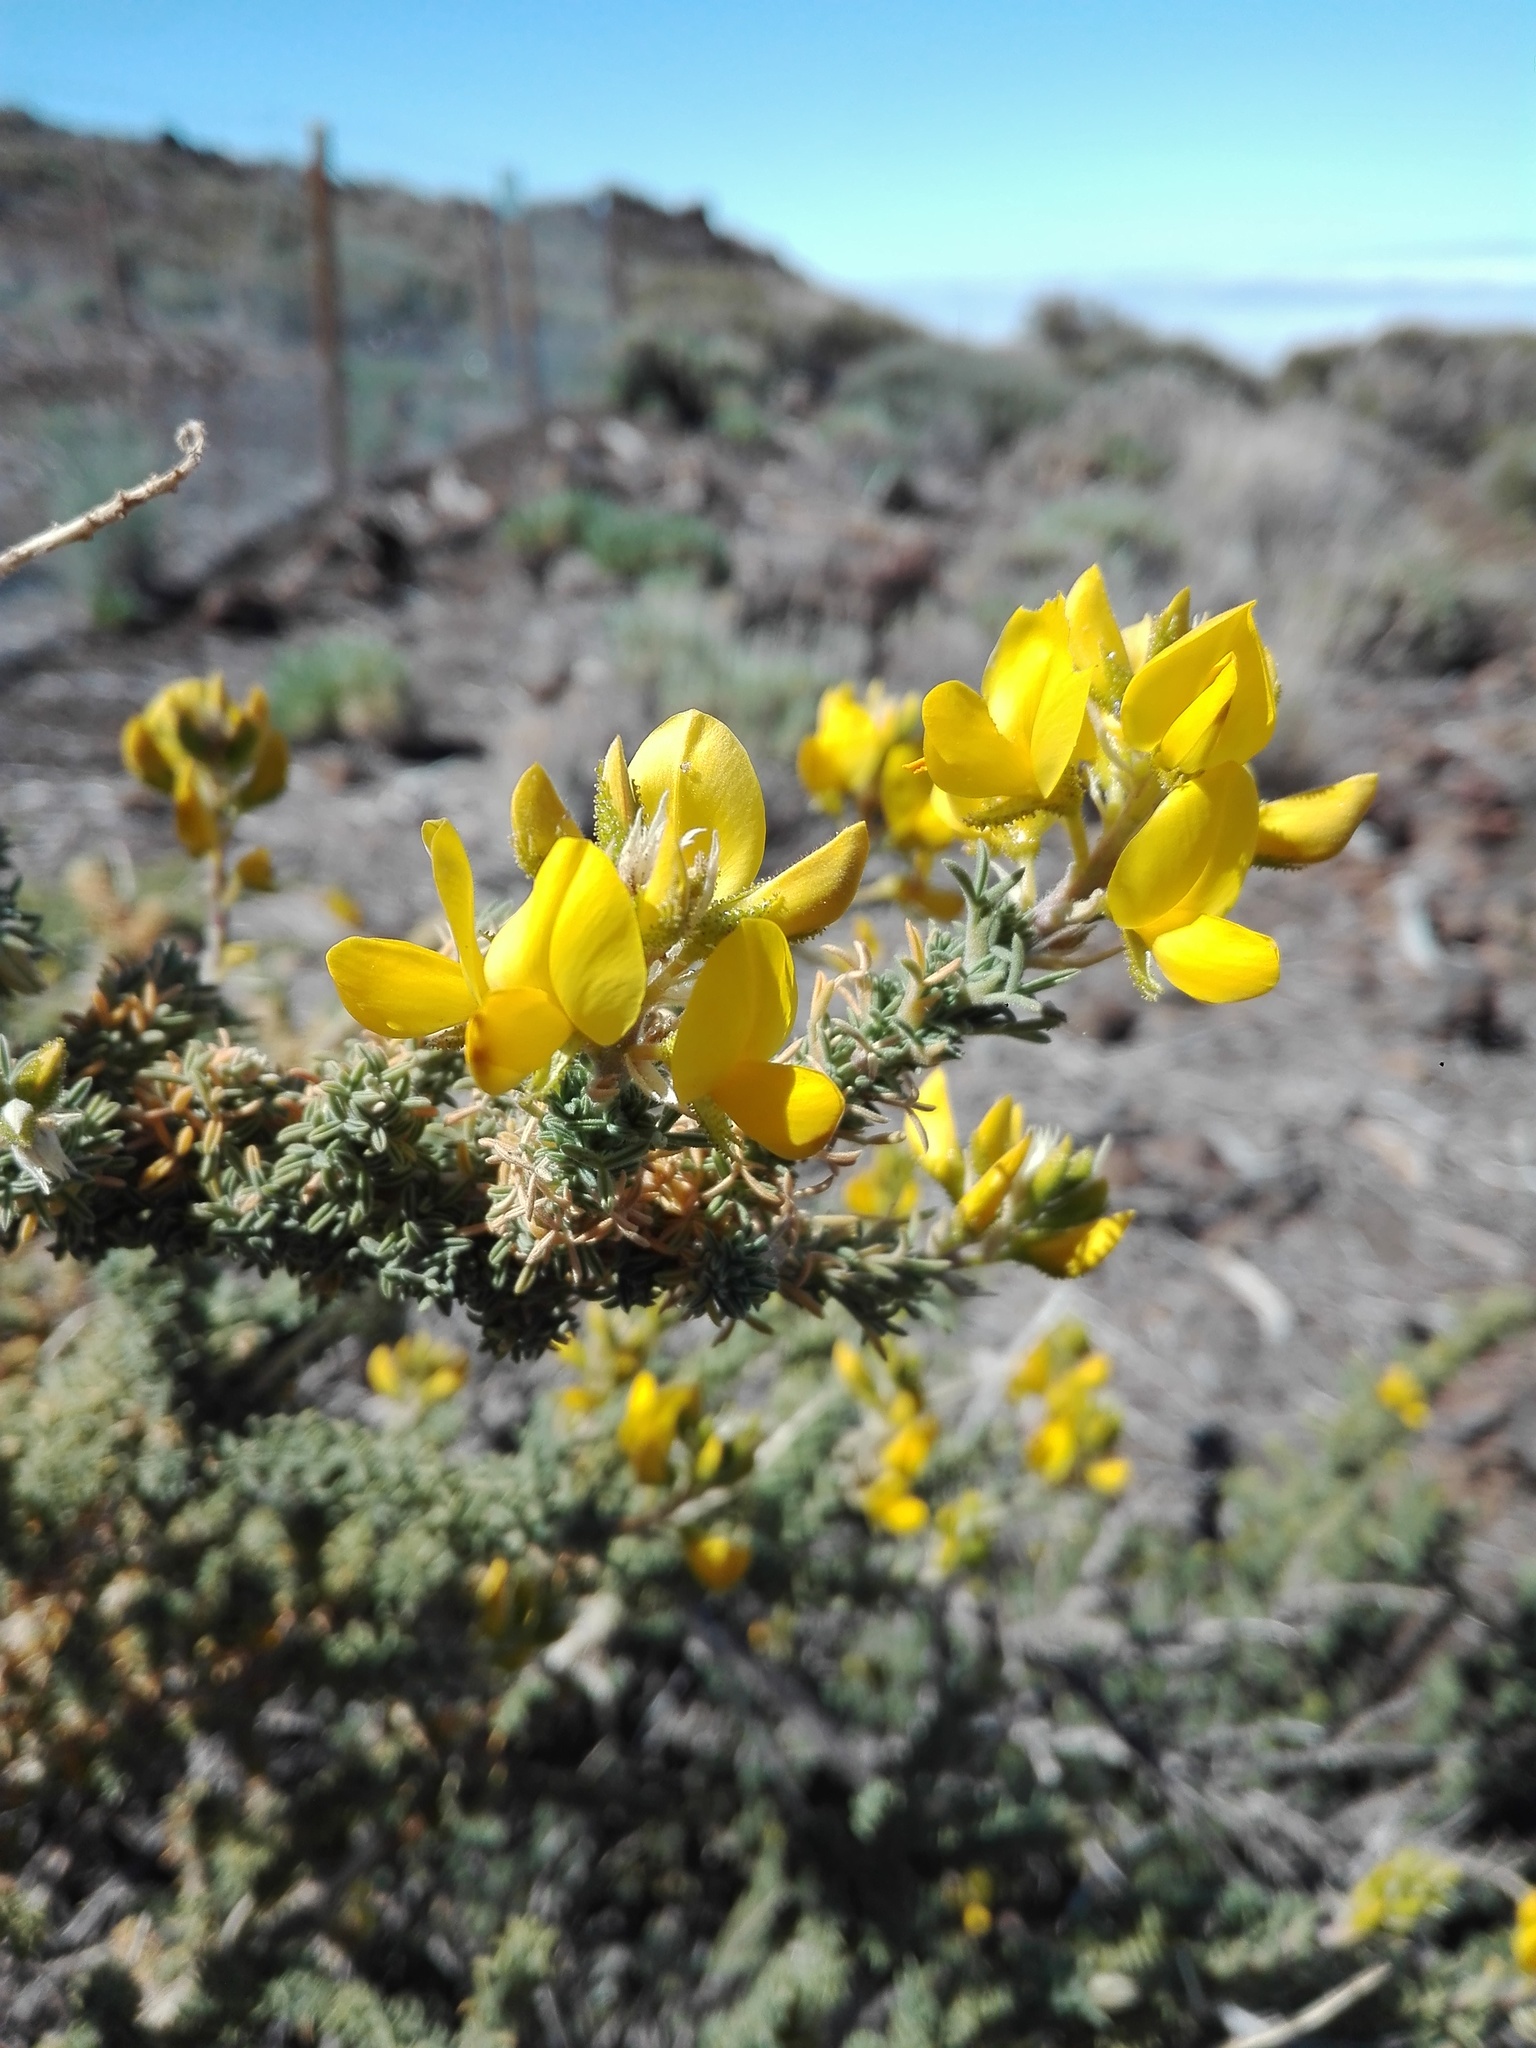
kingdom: Plantae
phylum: Tracheophyta
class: Magnoliopsida
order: Fabales
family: Fabaceae
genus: Adenocarpus
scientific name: Adenocarpus viscosus
